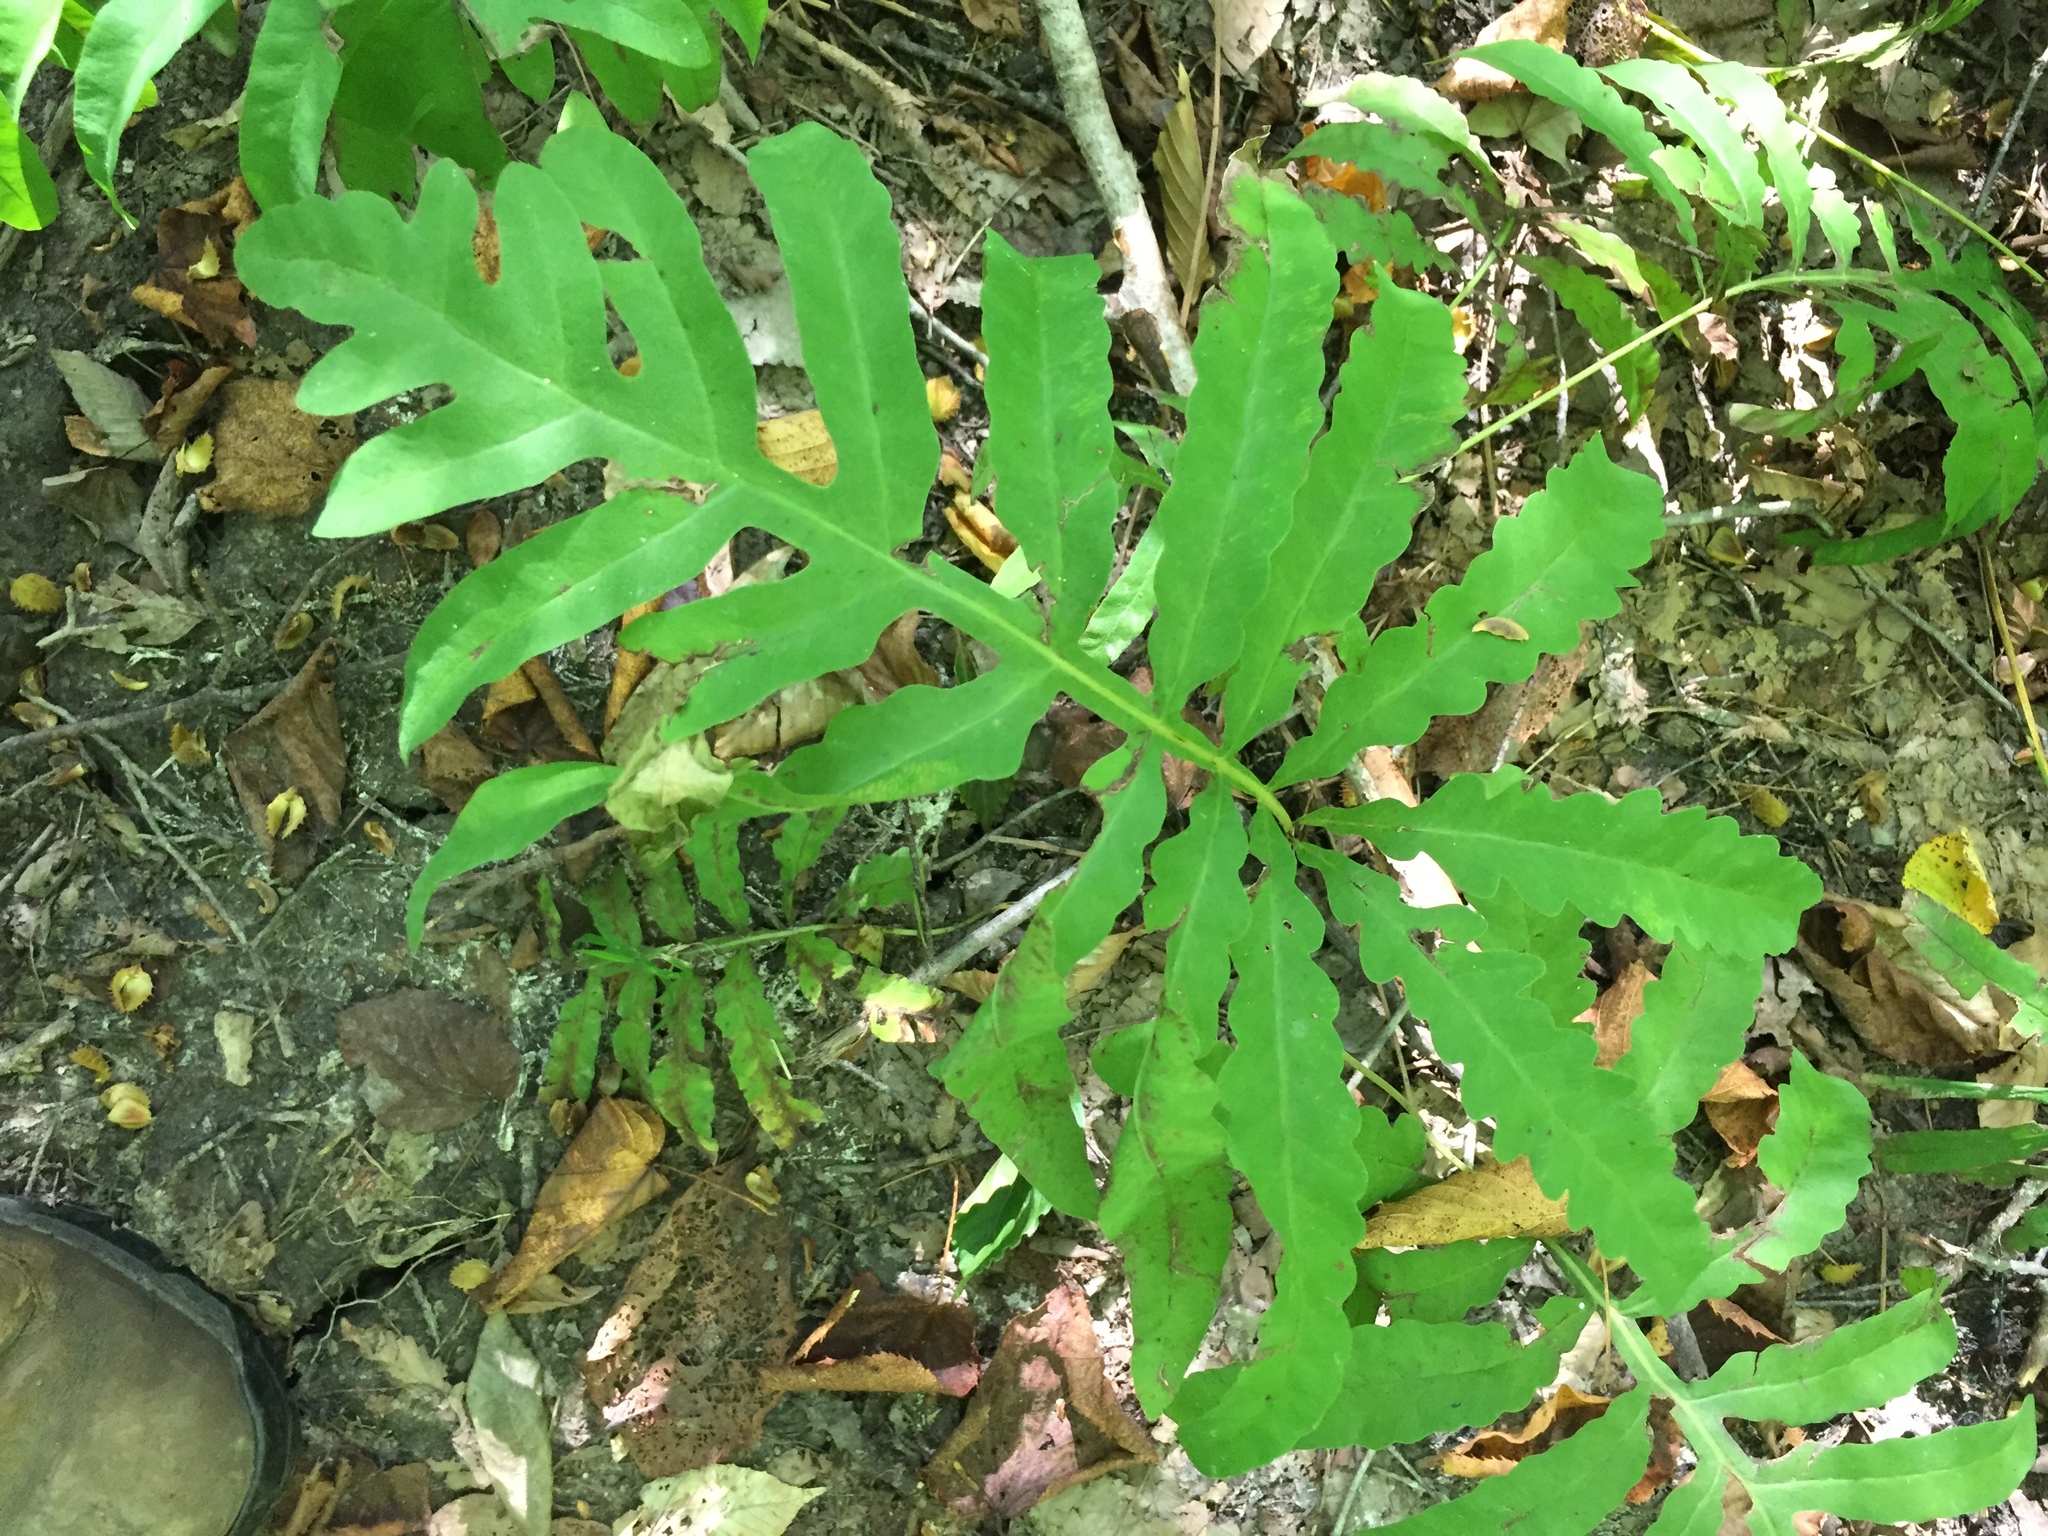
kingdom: Plantae
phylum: Tracheophyta
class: Polypodiopsida
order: Polypodiales
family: Onocleaceae
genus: Onoclea
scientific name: Onoclea sensibilis
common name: Sensitive fern
